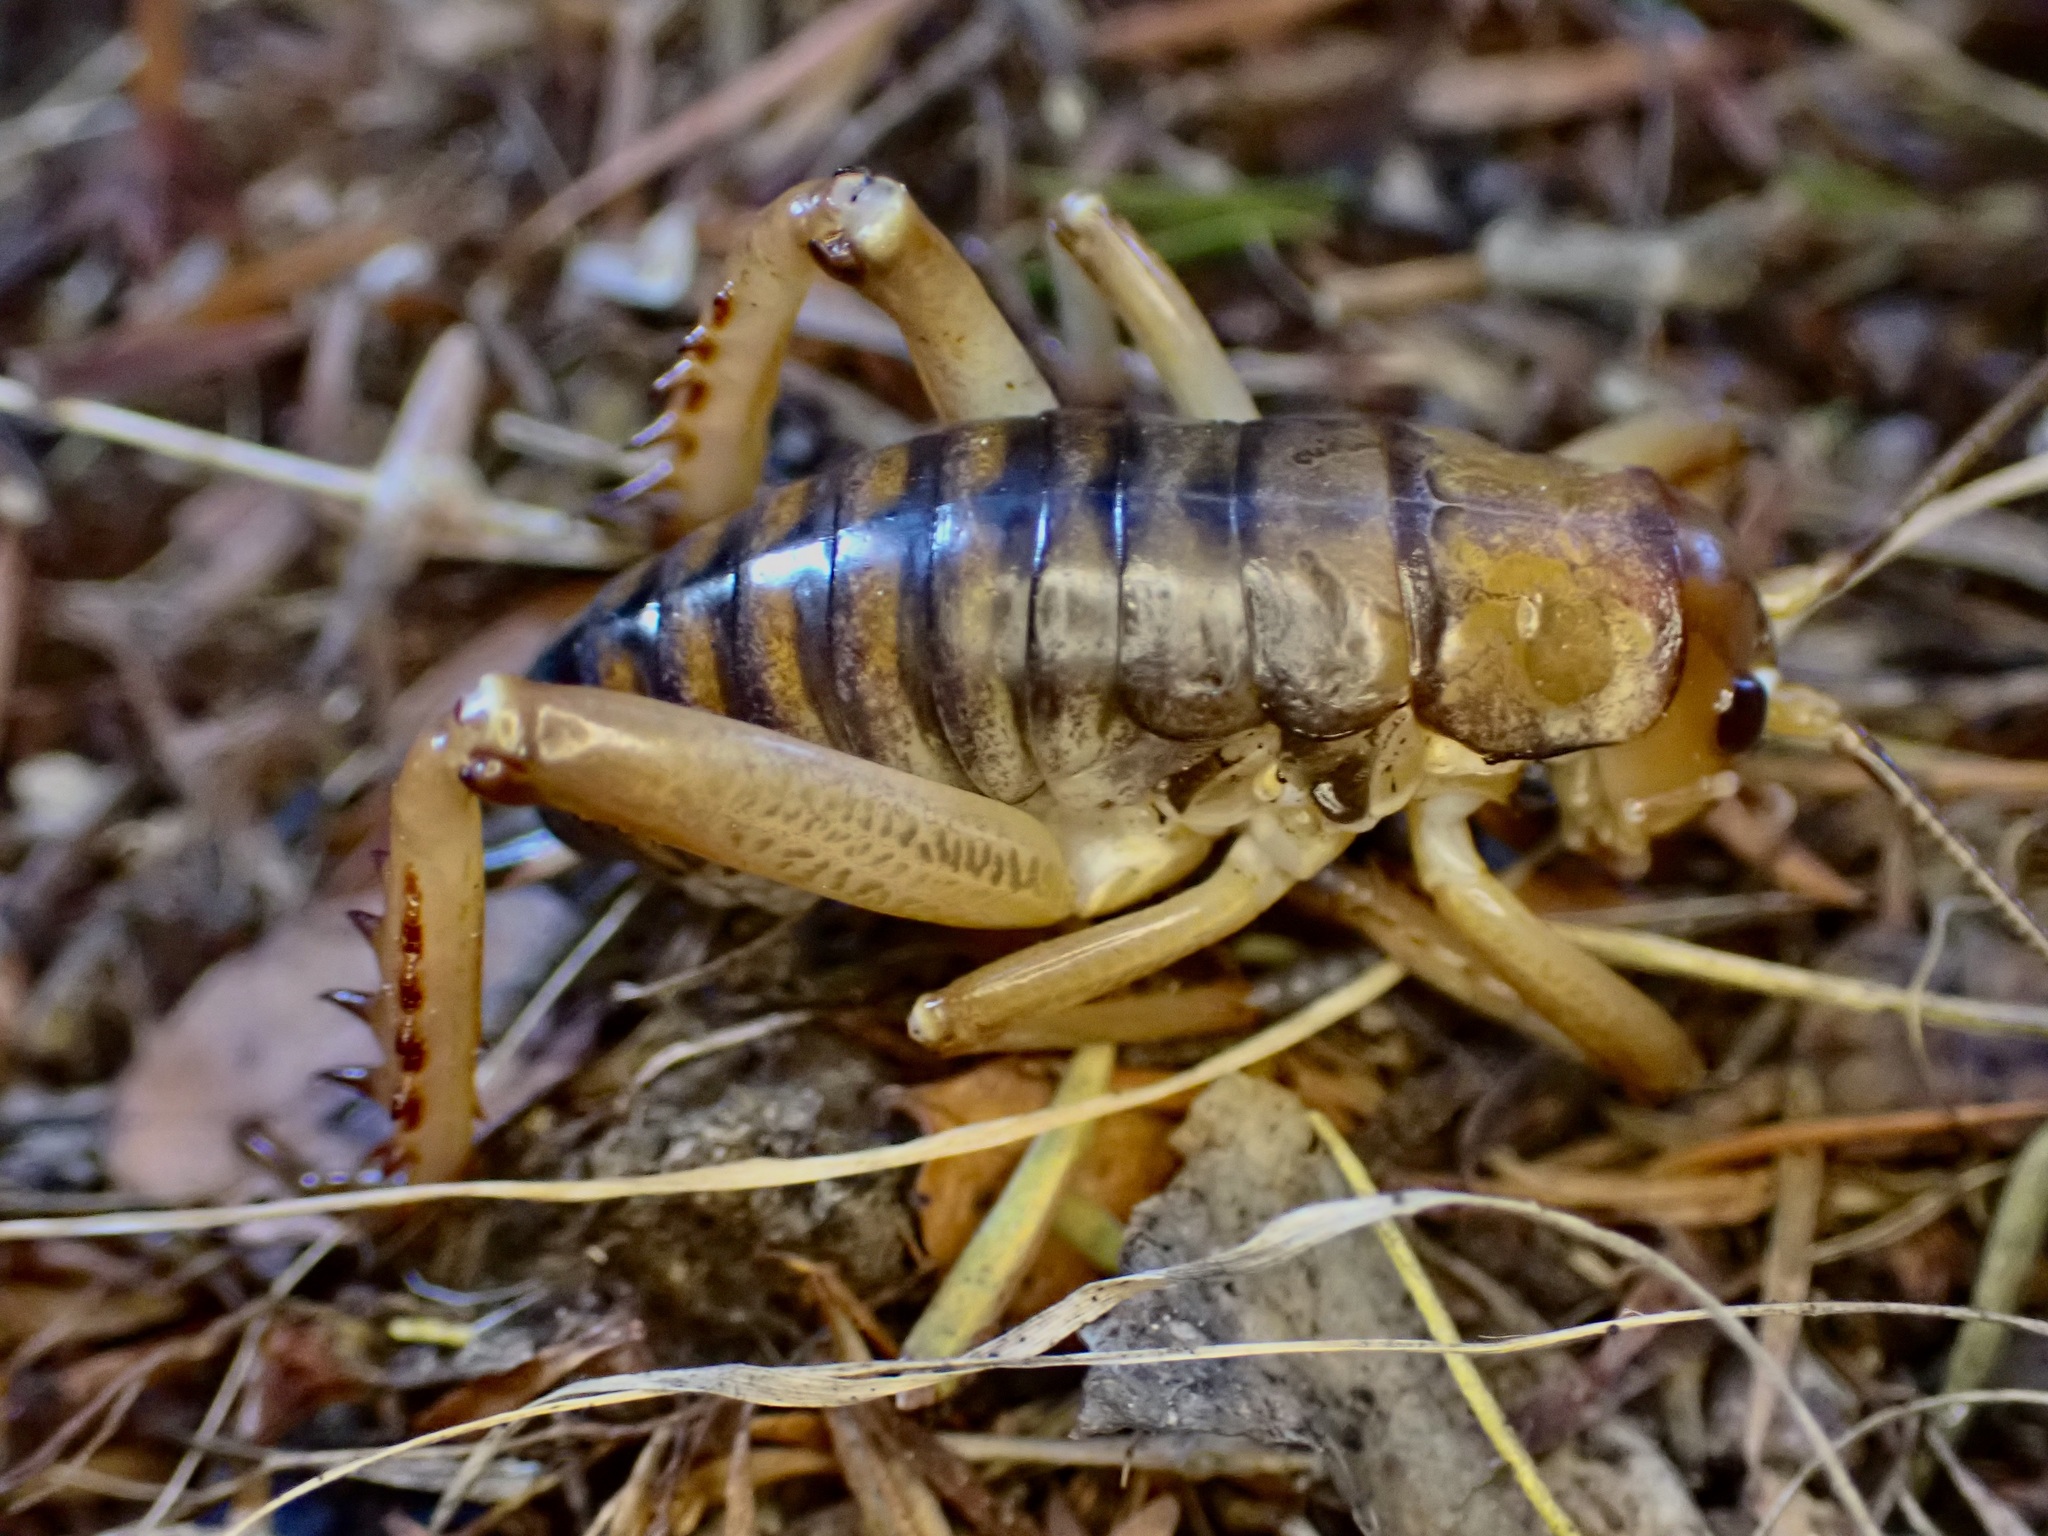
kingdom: Animalia
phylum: Arthropoda
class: Insecta
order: Orthoptera
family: Anostostomatidae
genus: Hemideina
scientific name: Hemideina ricta
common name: Banks peninsula tree weta
